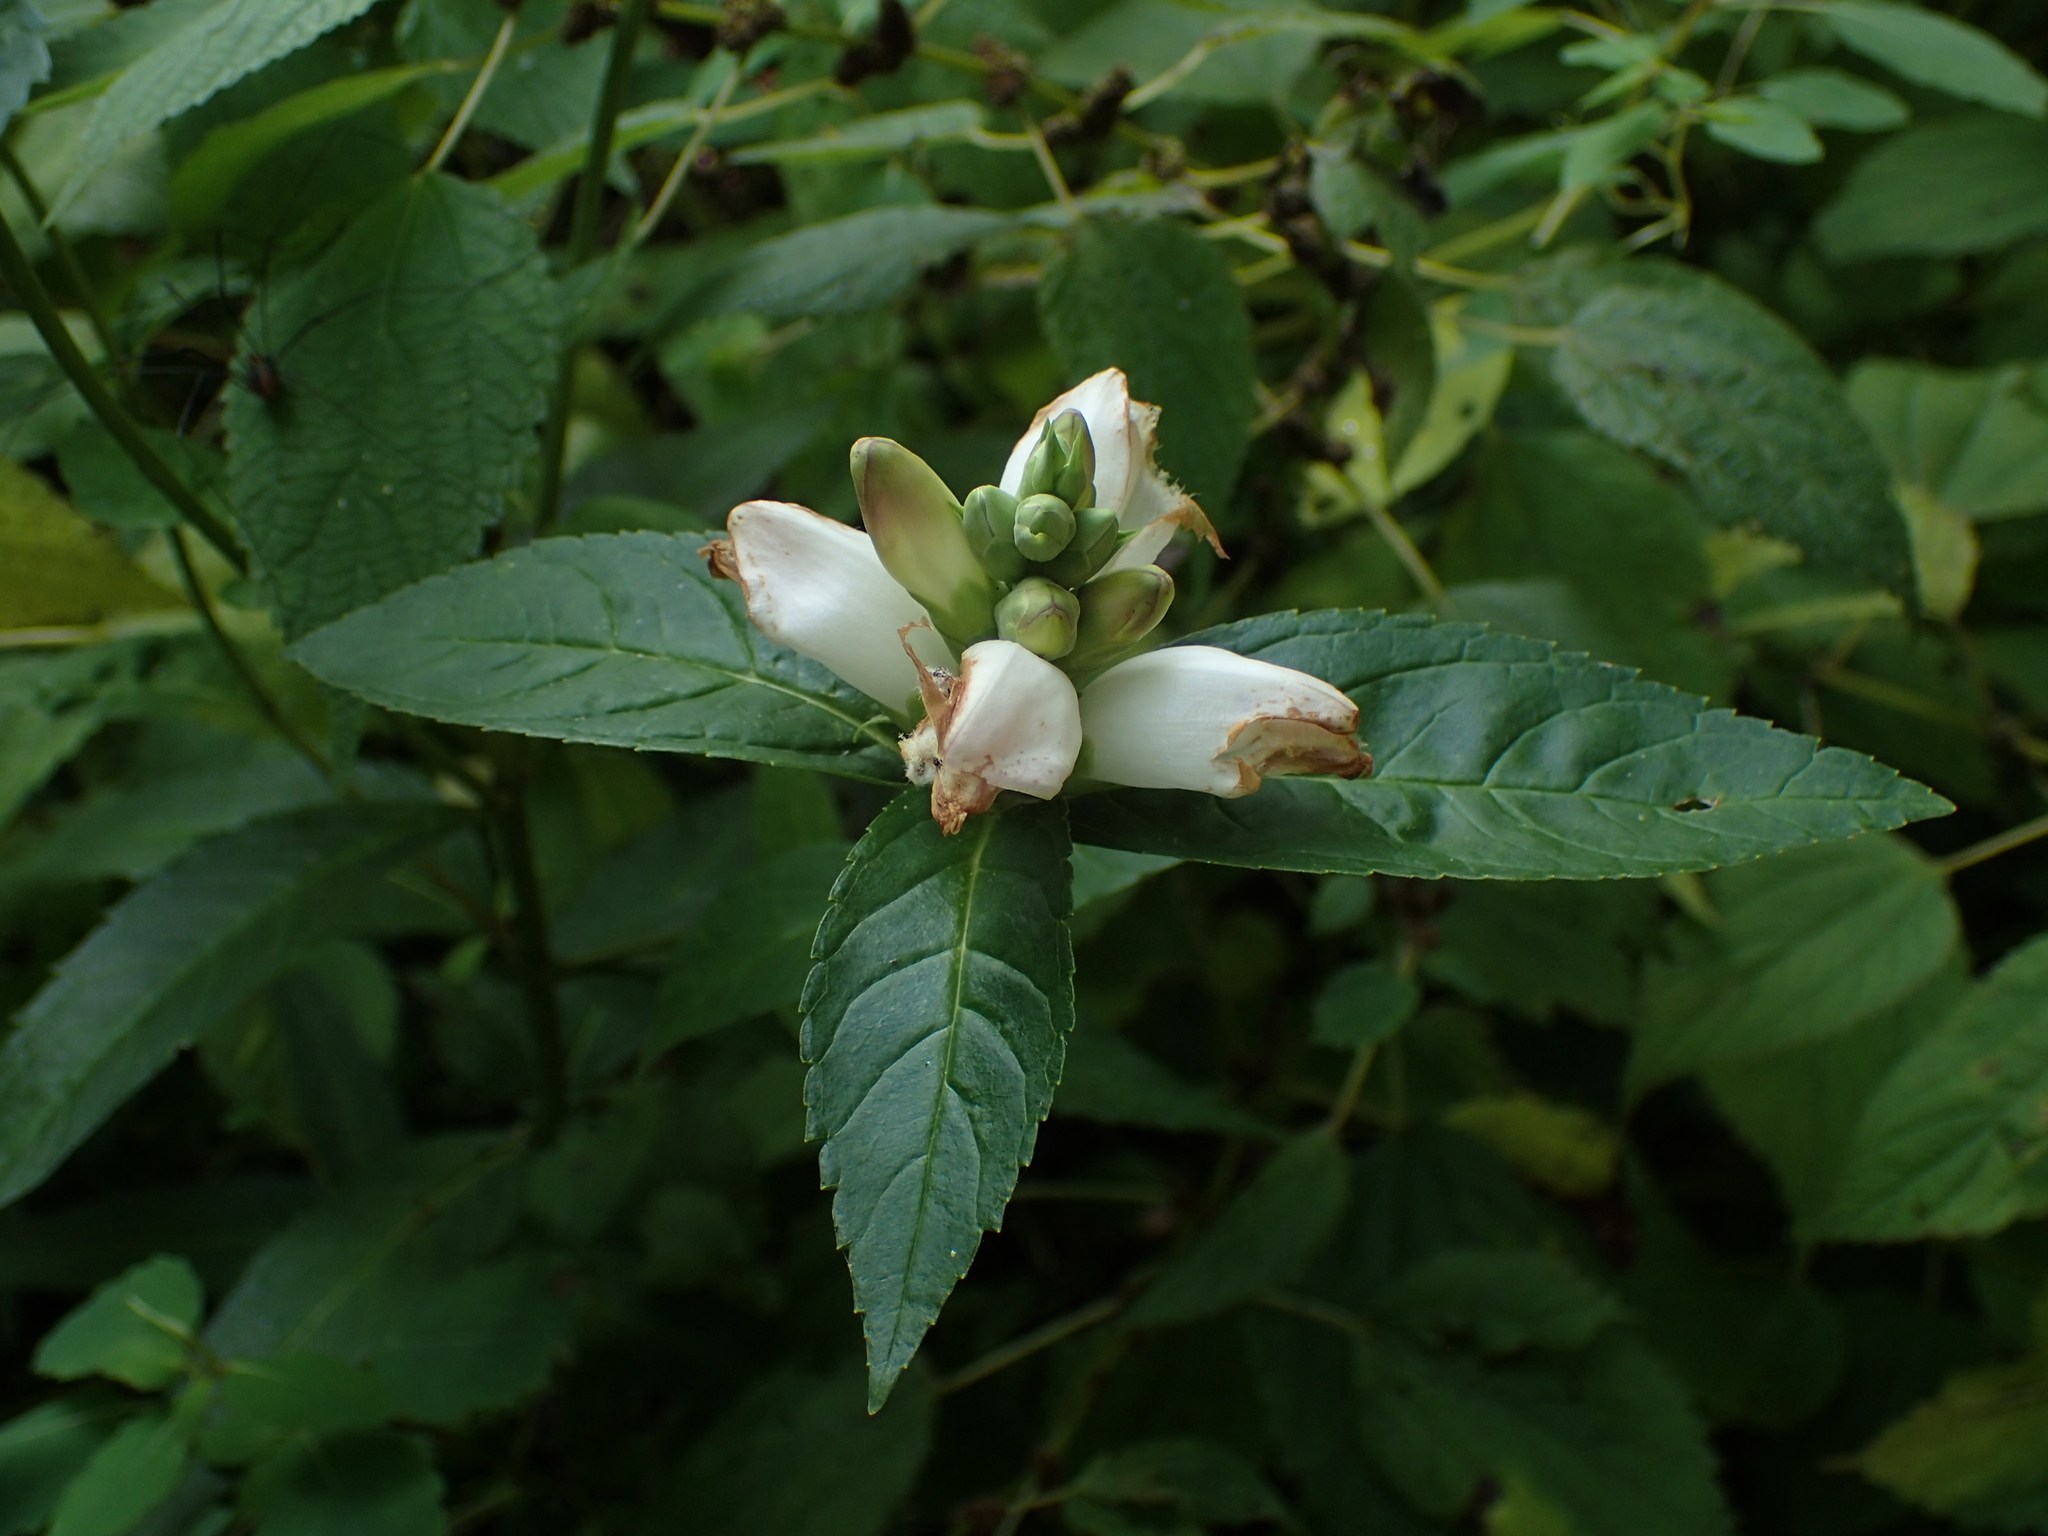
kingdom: Plantae
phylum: Tracheophyta
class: Magnoliopsida
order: Lamiales
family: Plantaginaceae
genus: Chelone
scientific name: Chelone glabra
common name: Snakehead
